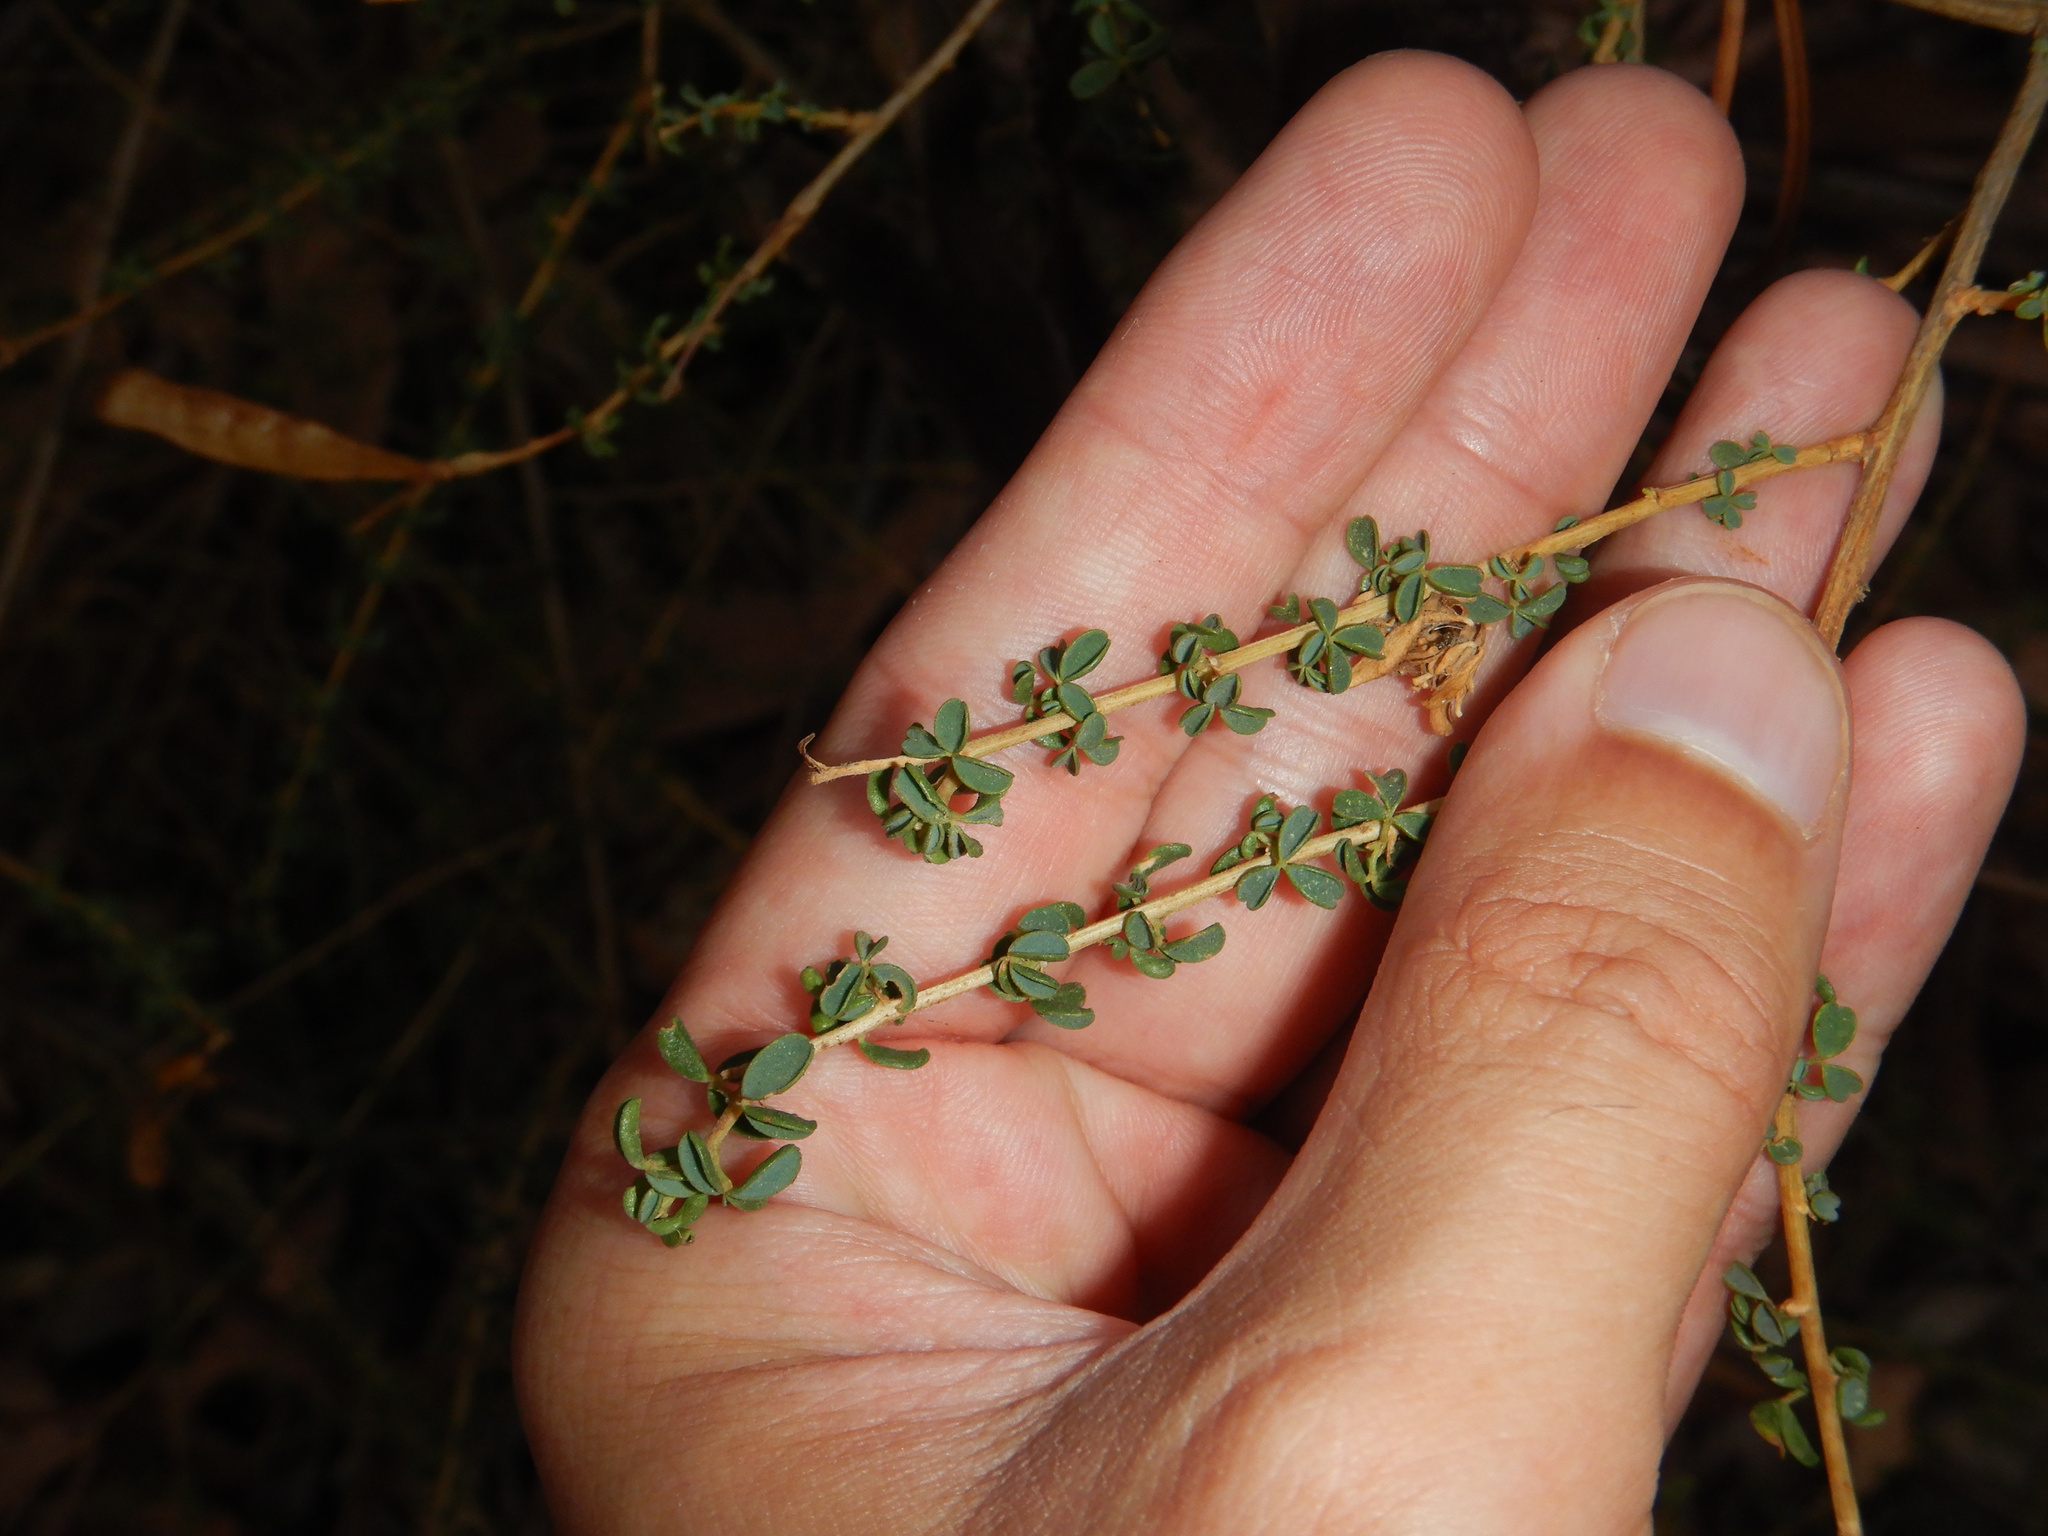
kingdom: Plantae
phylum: Tracheophyta
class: Magnoliopsida
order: Fabales
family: Fabaceae
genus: Adenocarpus
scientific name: Adenocarpus hispanicus
